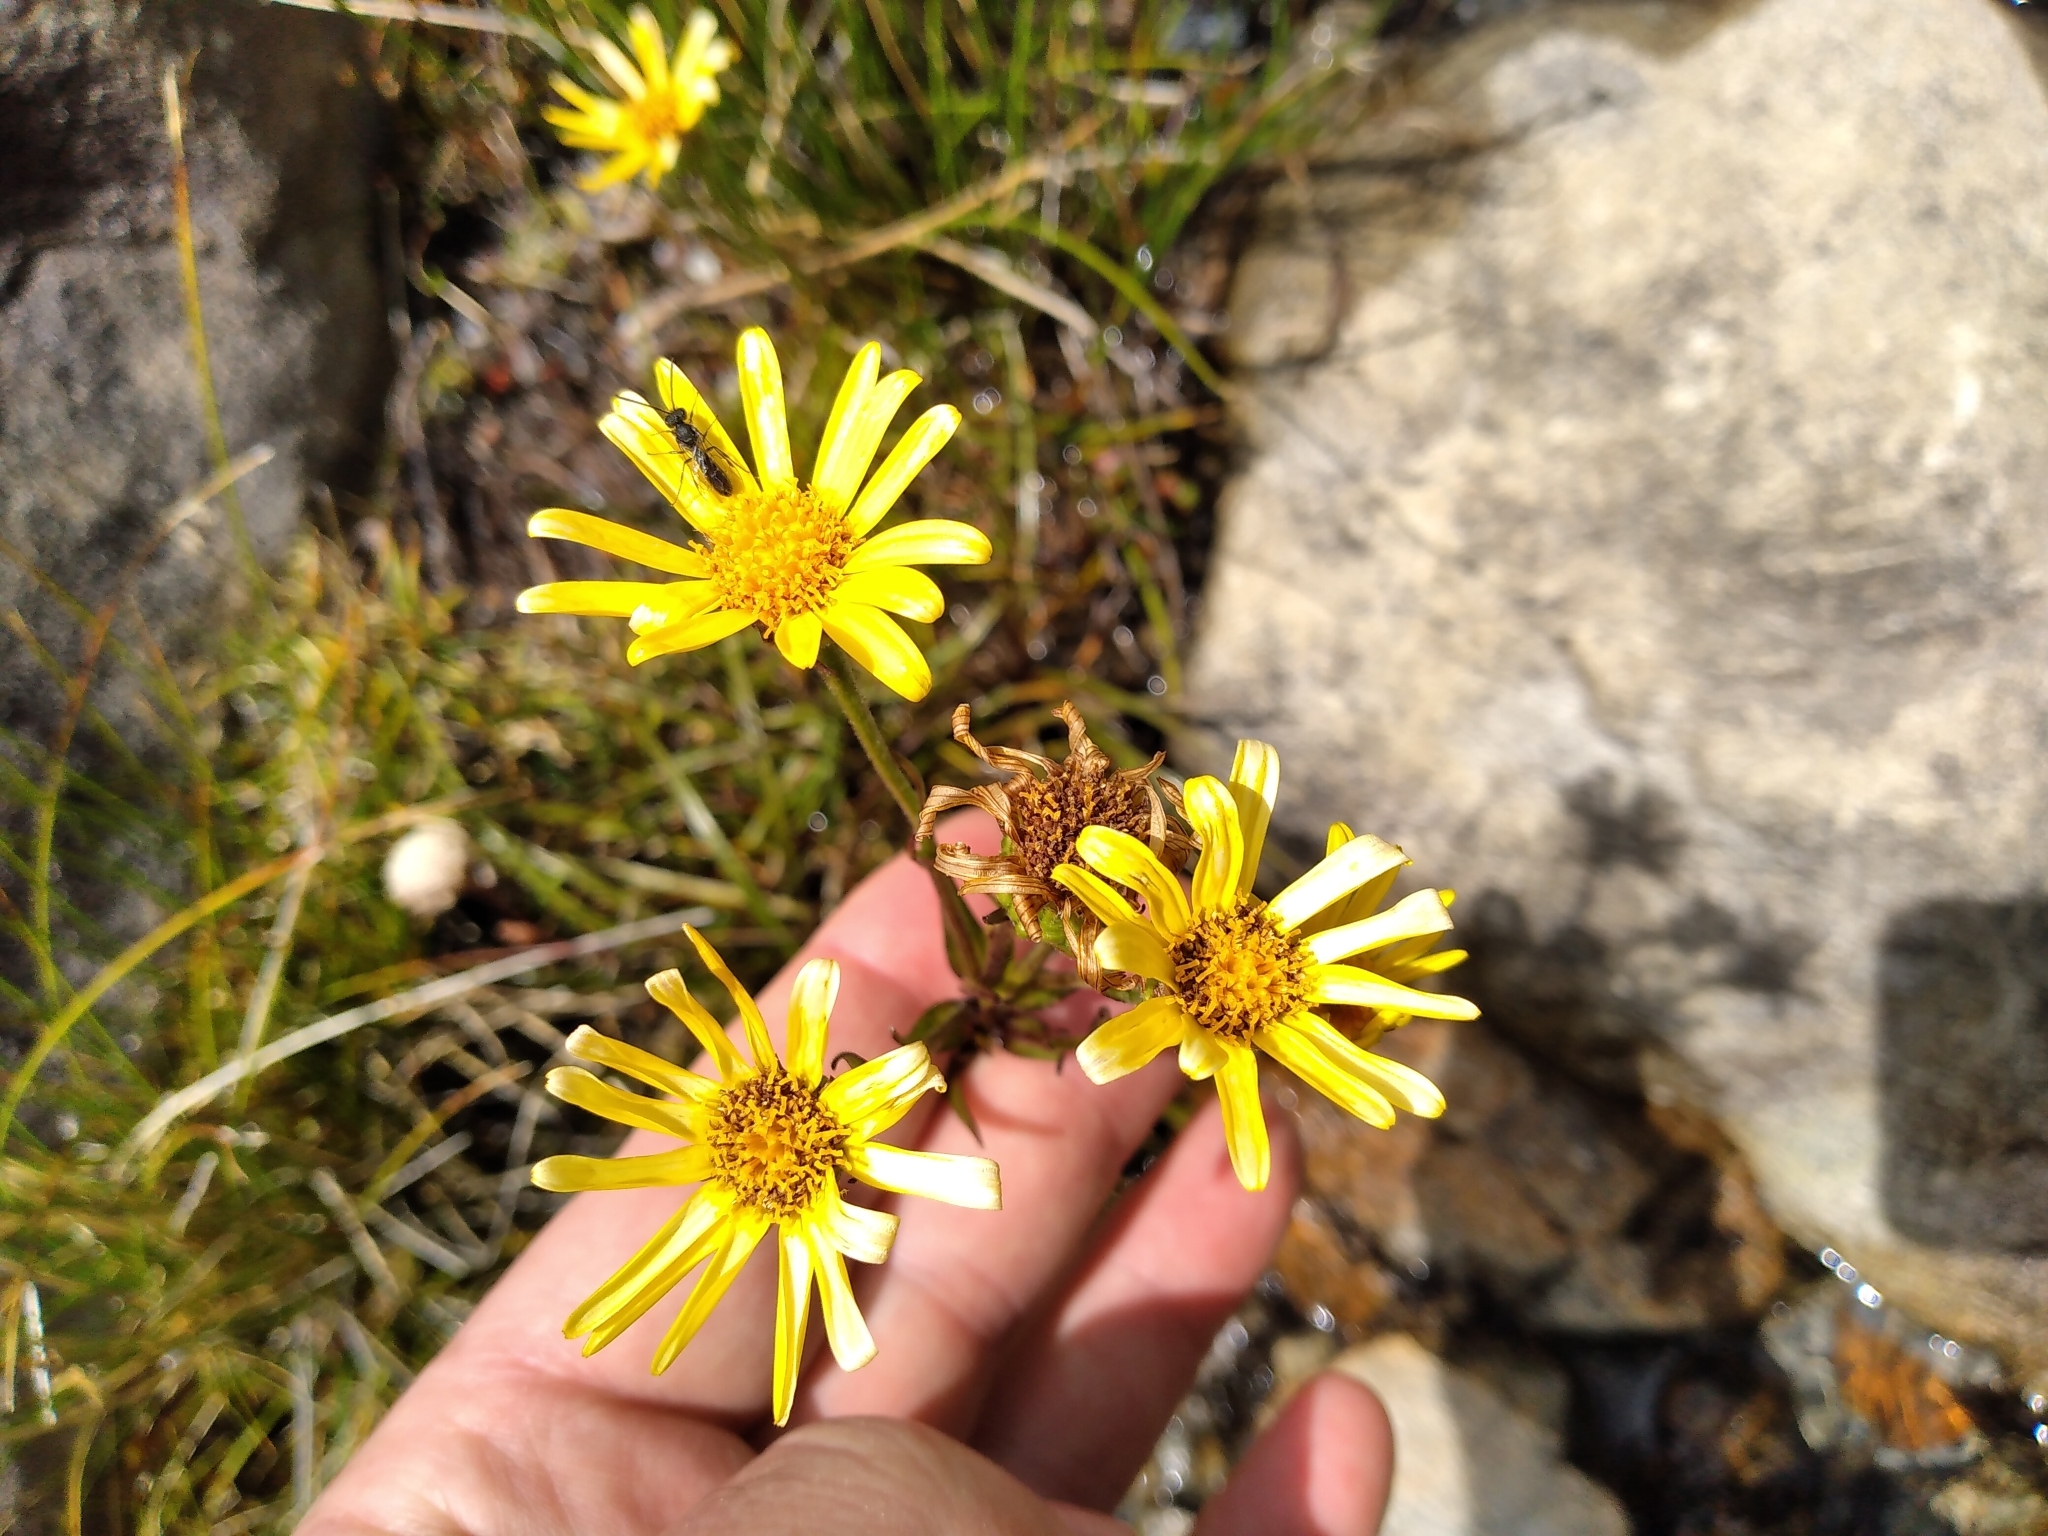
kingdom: Plantae
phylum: Tracheophyta
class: Magnoliopsida
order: Asterales
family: Asteraceae
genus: Dolichoglottis
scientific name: Dolichoglottis lyallii
